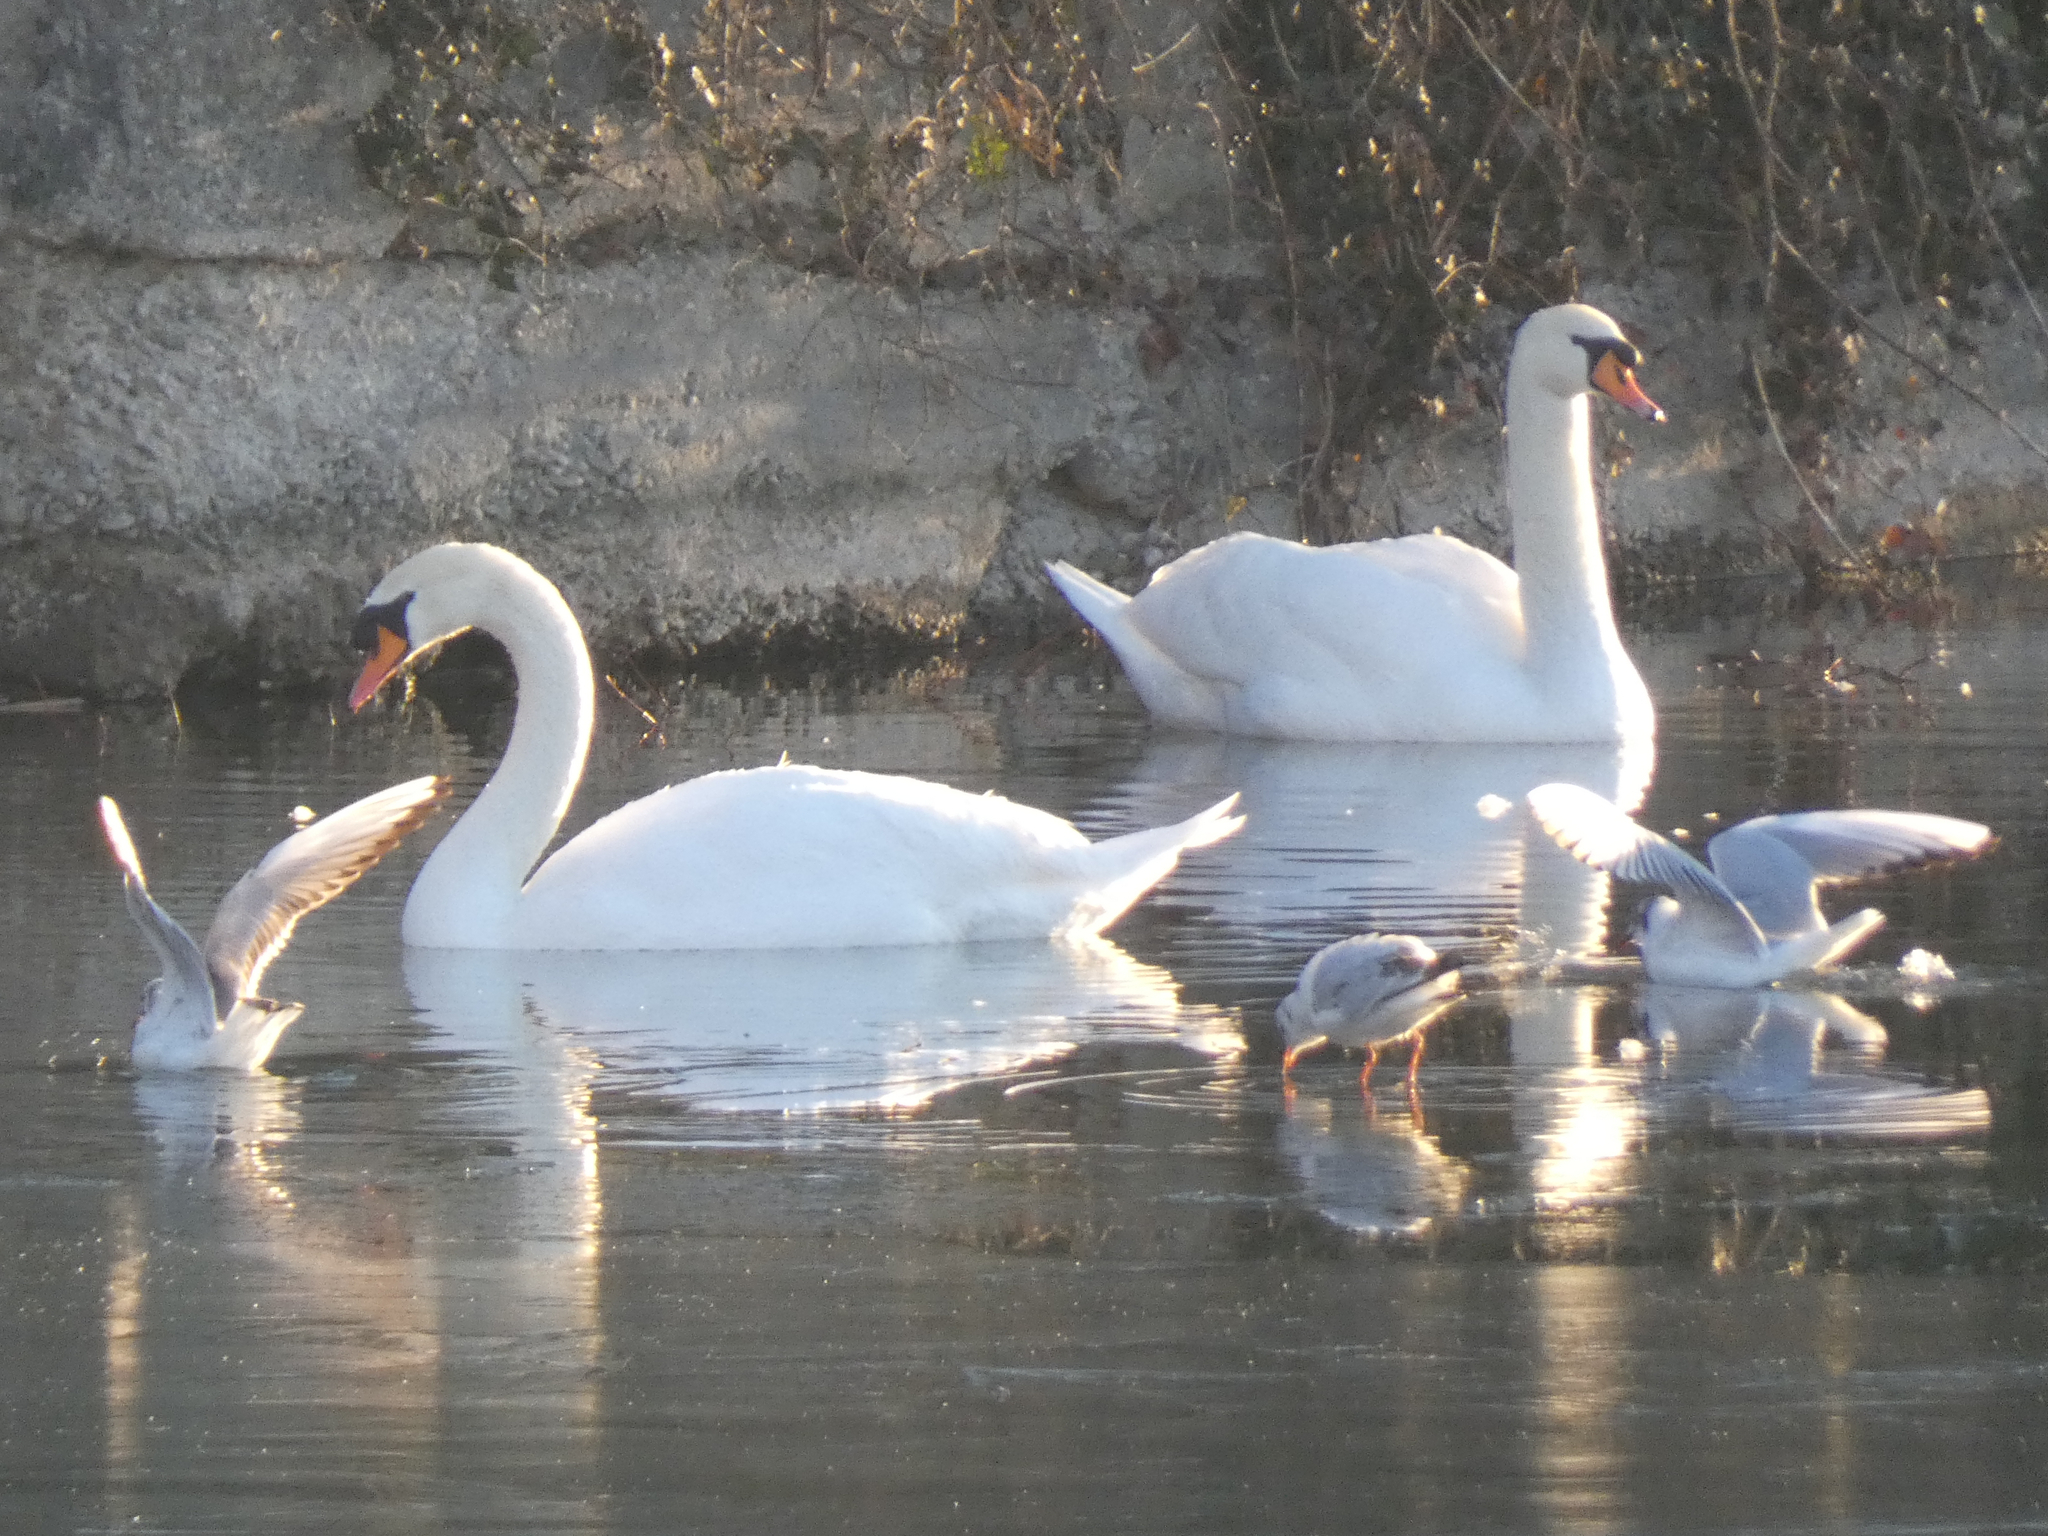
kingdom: Animalia
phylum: Chordata
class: Aves
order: Anseriformes
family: Anatidae
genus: Cygnus
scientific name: Cygnus olor
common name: Mute swan
